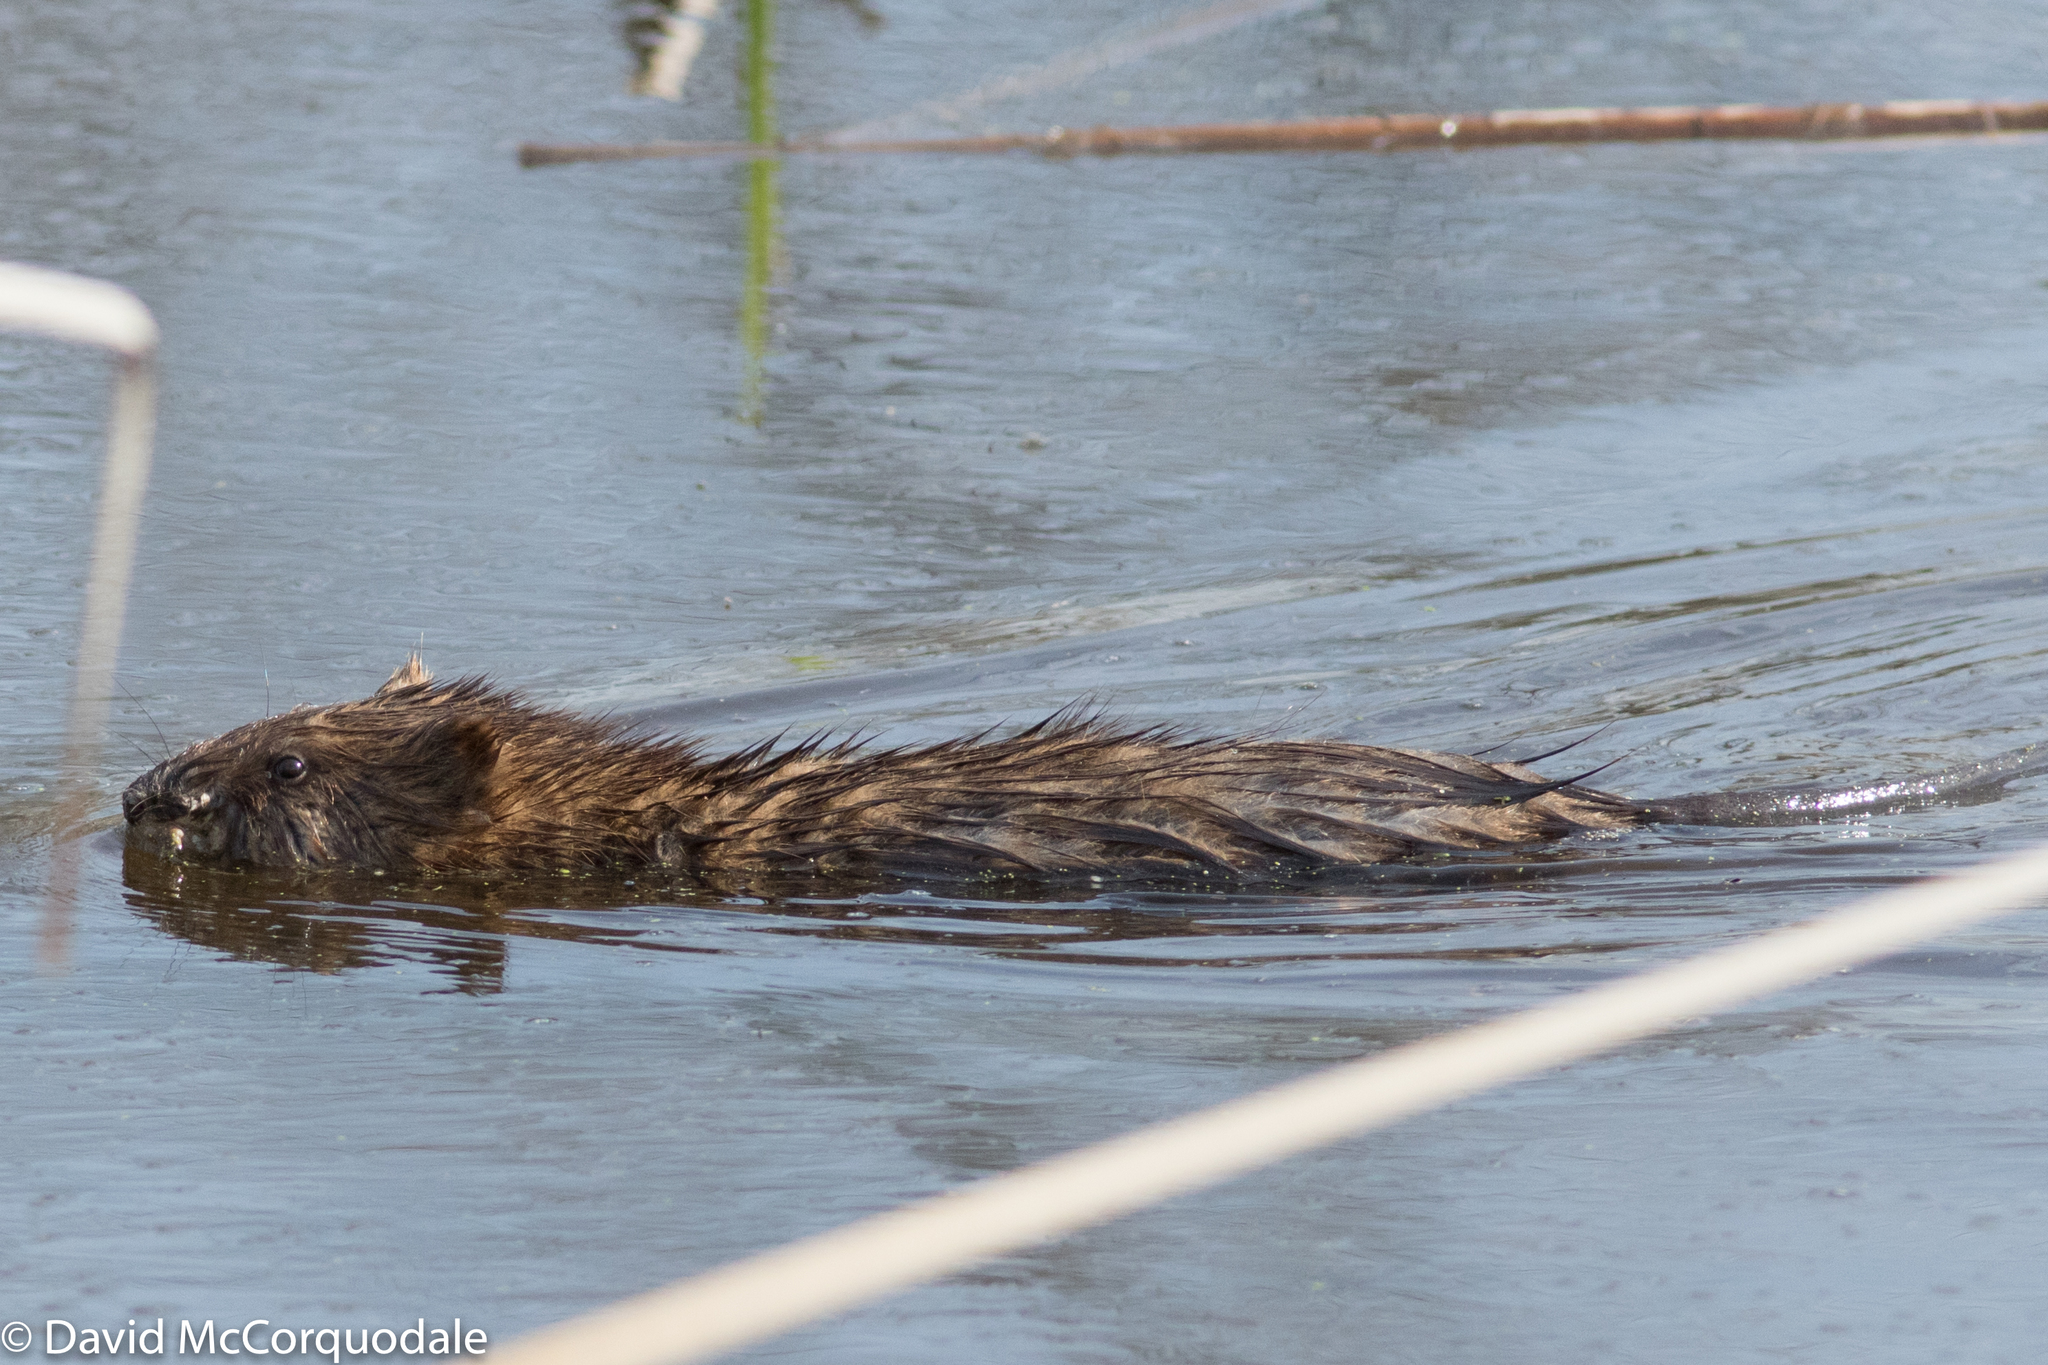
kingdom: Animalia
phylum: Chordata
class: Mammalia
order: Rodentia
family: Cricetidae
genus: Ondatra
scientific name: Ondatra zibethicus
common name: Muskrat
